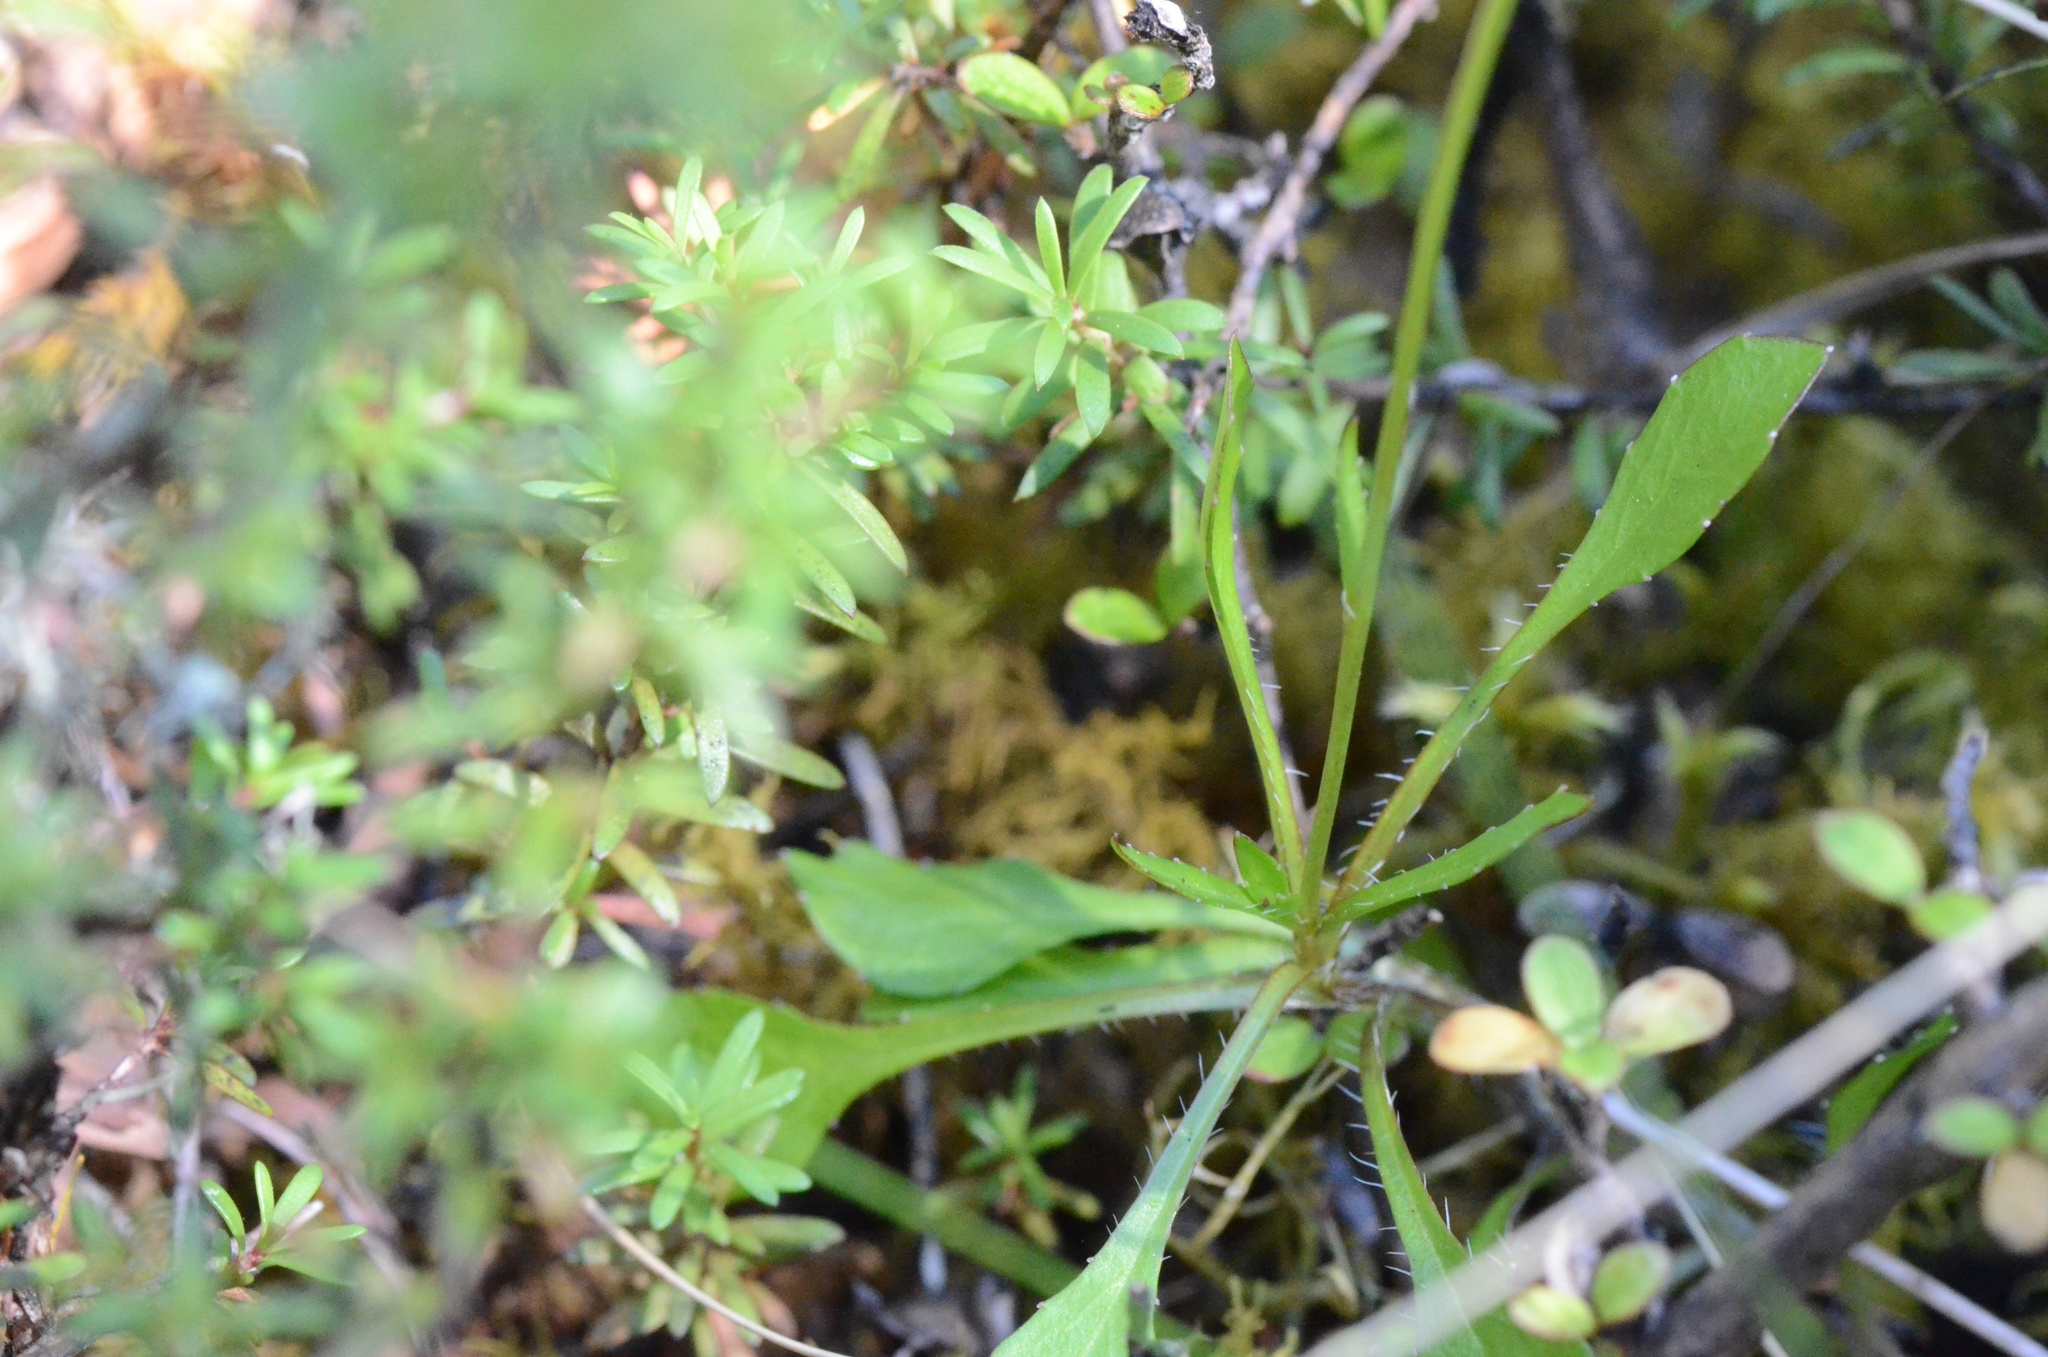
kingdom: Plantae
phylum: Tracheophyta
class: Magnoliopsida
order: Asterales
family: Campanulaceae
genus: Wahlenbergia
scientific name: Wahlenbergia albomarginata
